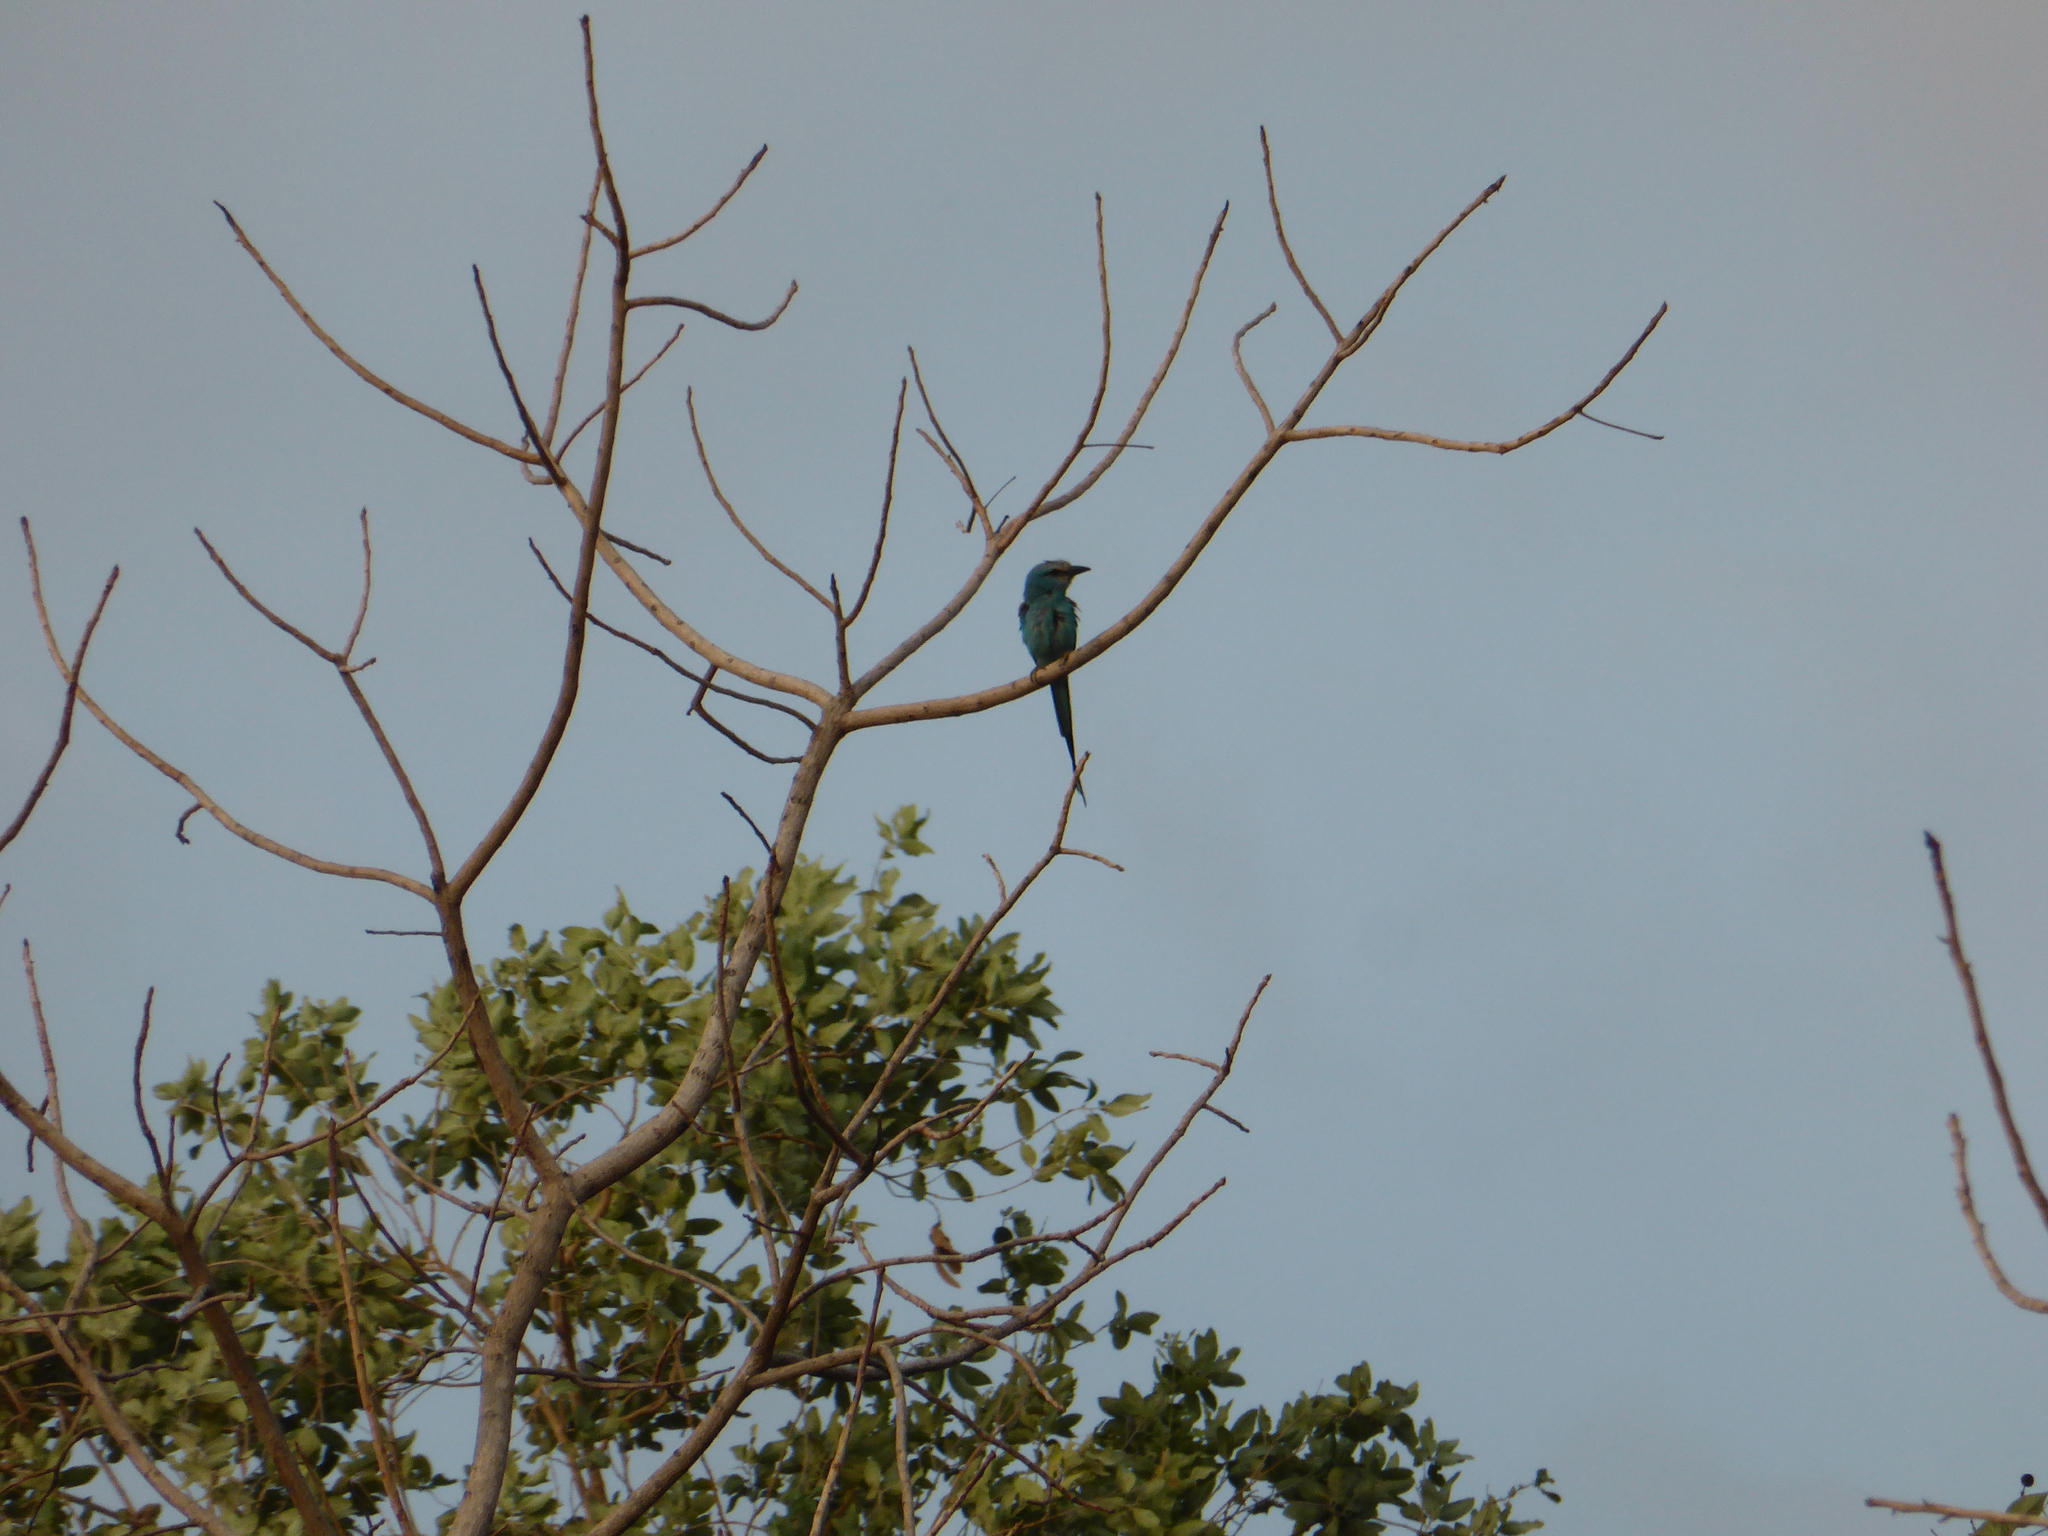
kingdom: Animalia
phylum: Chordata
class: Aves
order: Coraciiformes
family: Coraciidae
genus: Coracias
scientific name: Coracias abyssinicus
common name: Abyssinian roller
